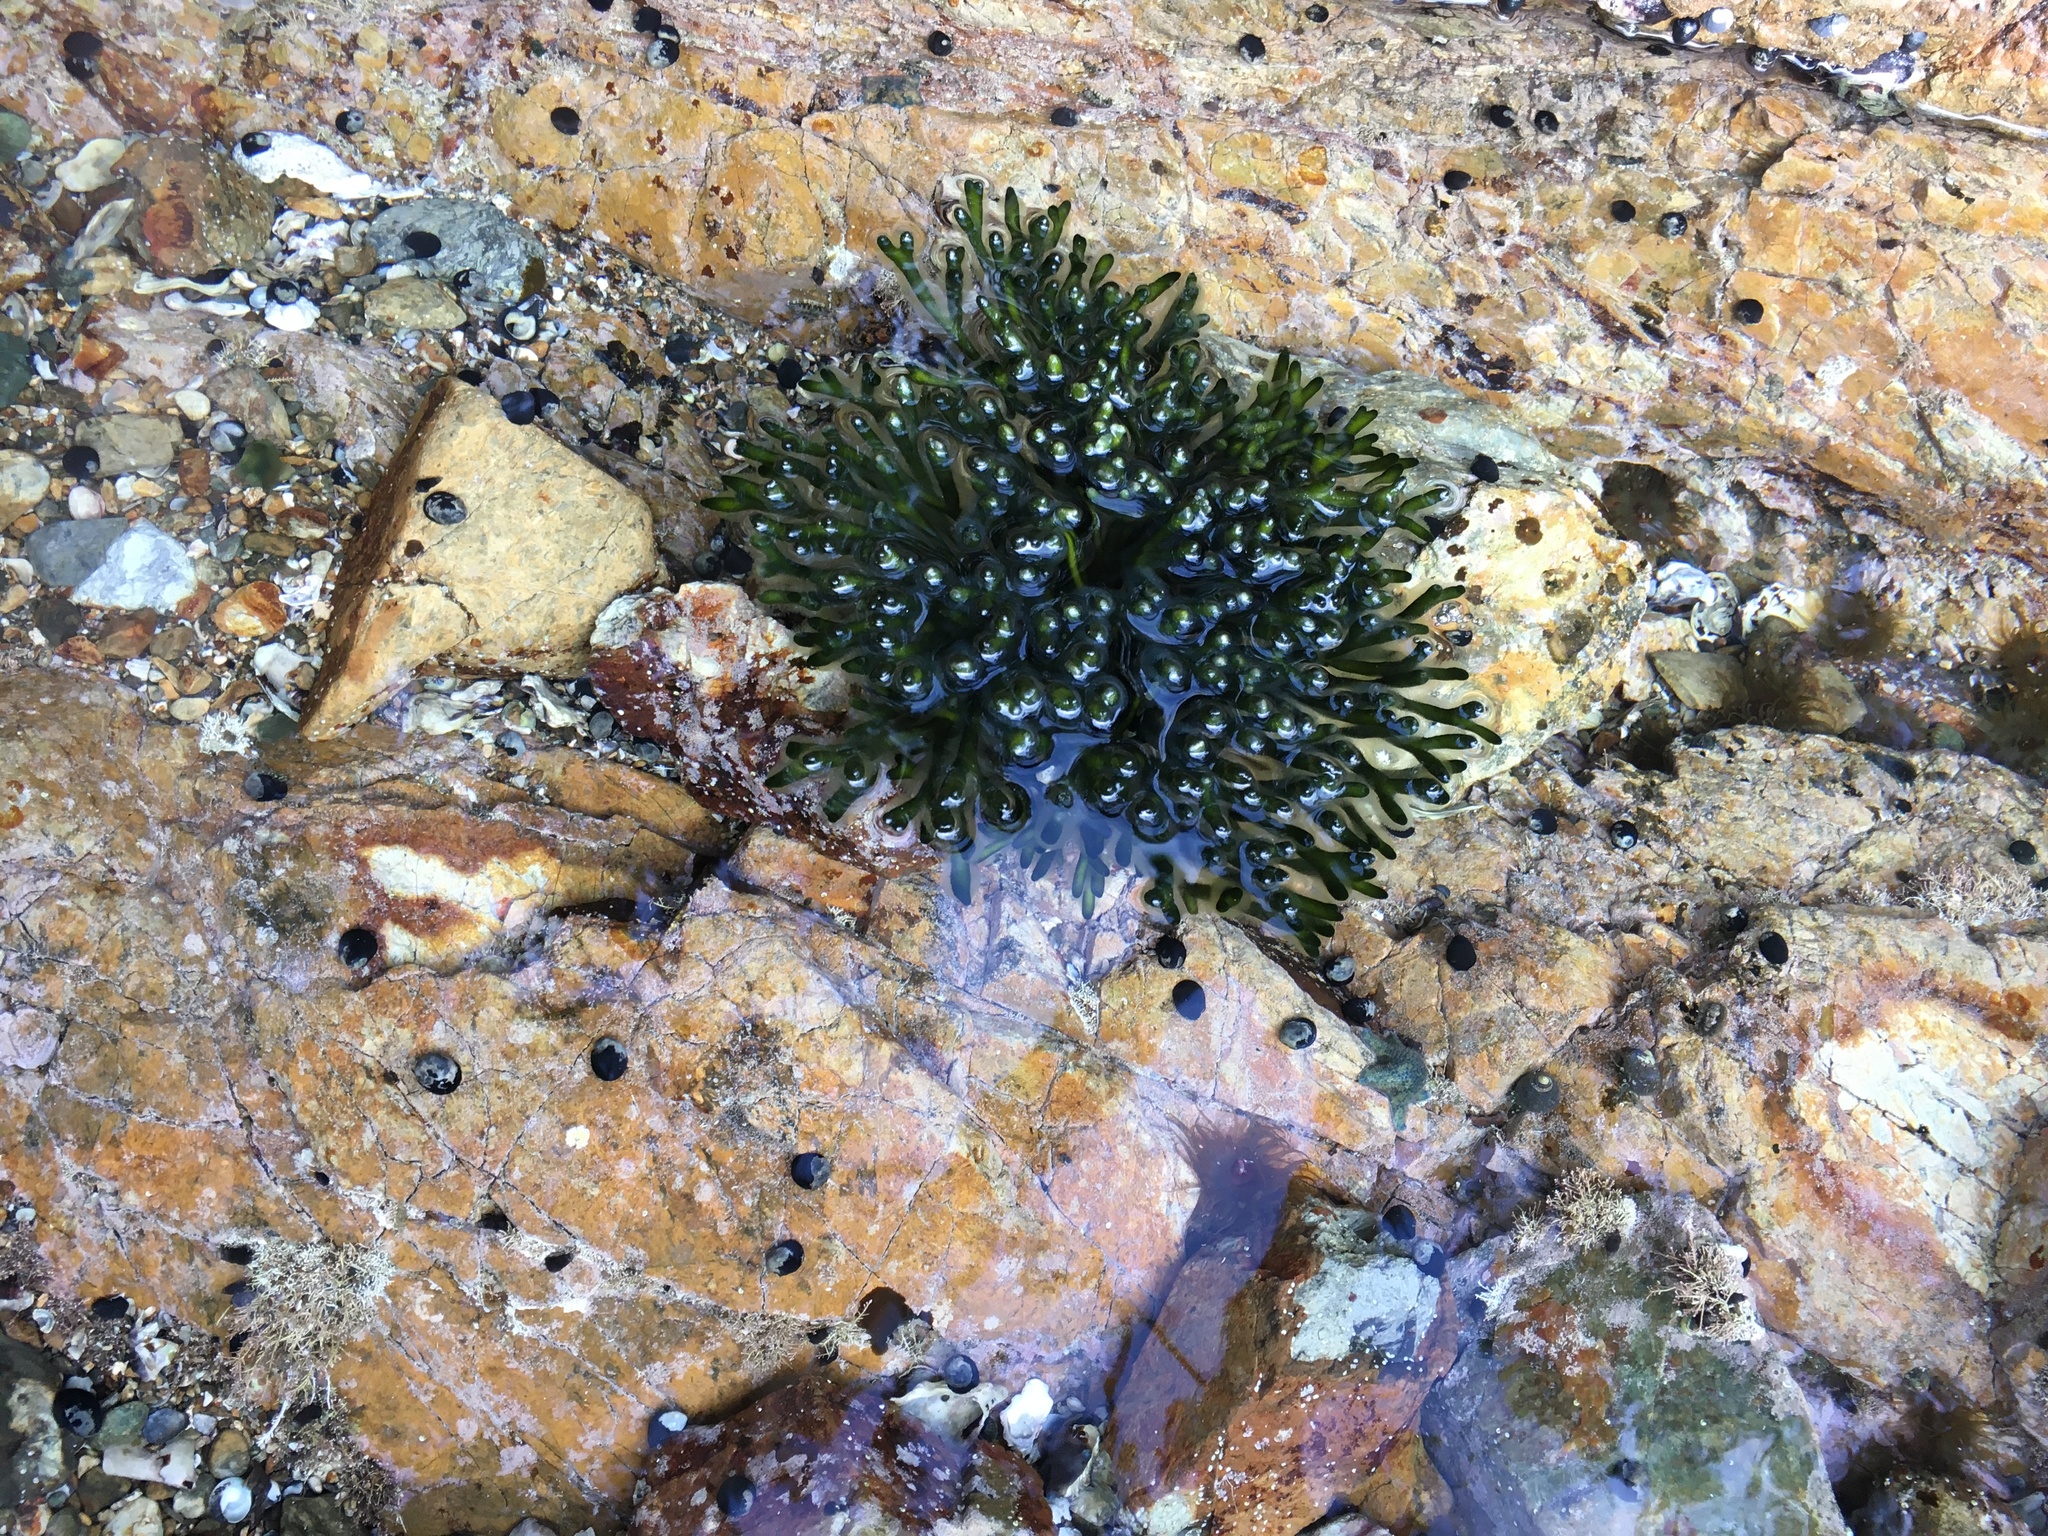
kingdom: Plantae
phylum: Chlorophyta
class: Ulvophyceae
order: Bryopsidales
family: Codiaceae
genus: Codium
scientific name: Codium fragile
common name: Dead man's fingers
